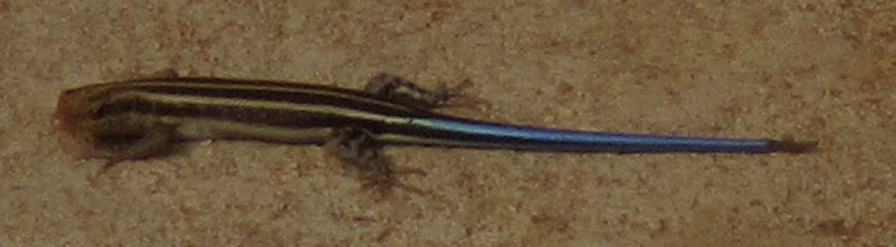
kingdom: Animalia
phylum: Chordata
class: Squamata
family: Scincidae
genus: Trachylepis
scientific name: Trachylepis margaritifera
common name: Rainbow skink
